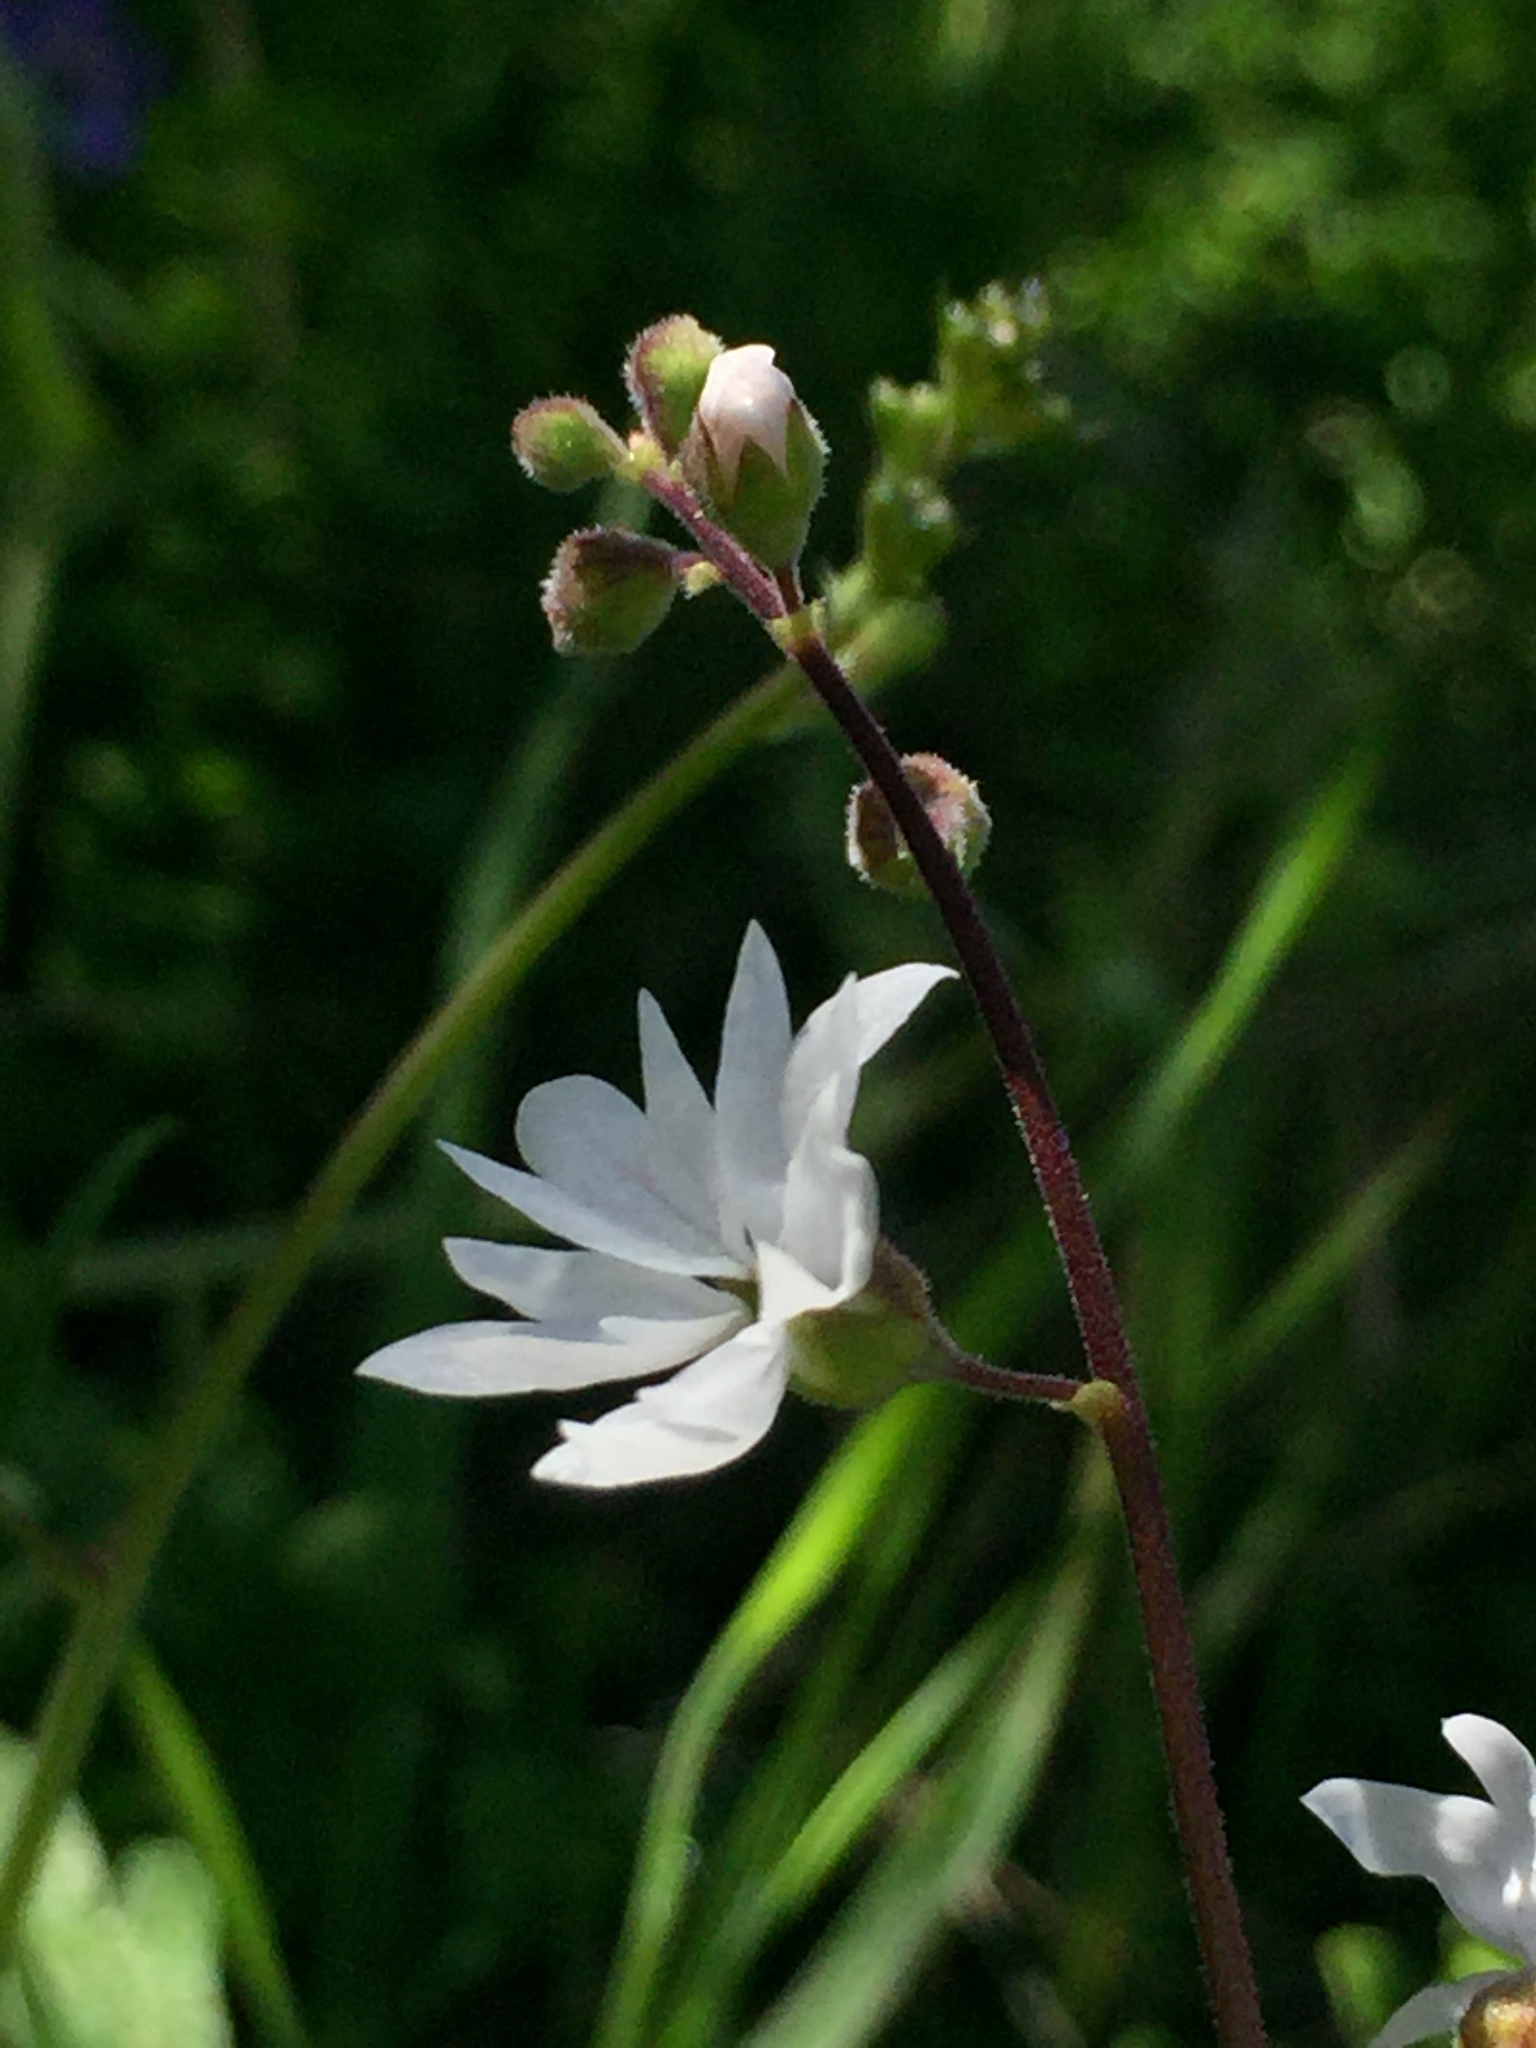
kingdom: Plantae
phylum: Tracheophyta
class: Magnoliopsida
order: Saxifragales
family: Saxifragaceae
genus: Lithophragma
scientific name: Lithophragma affine
